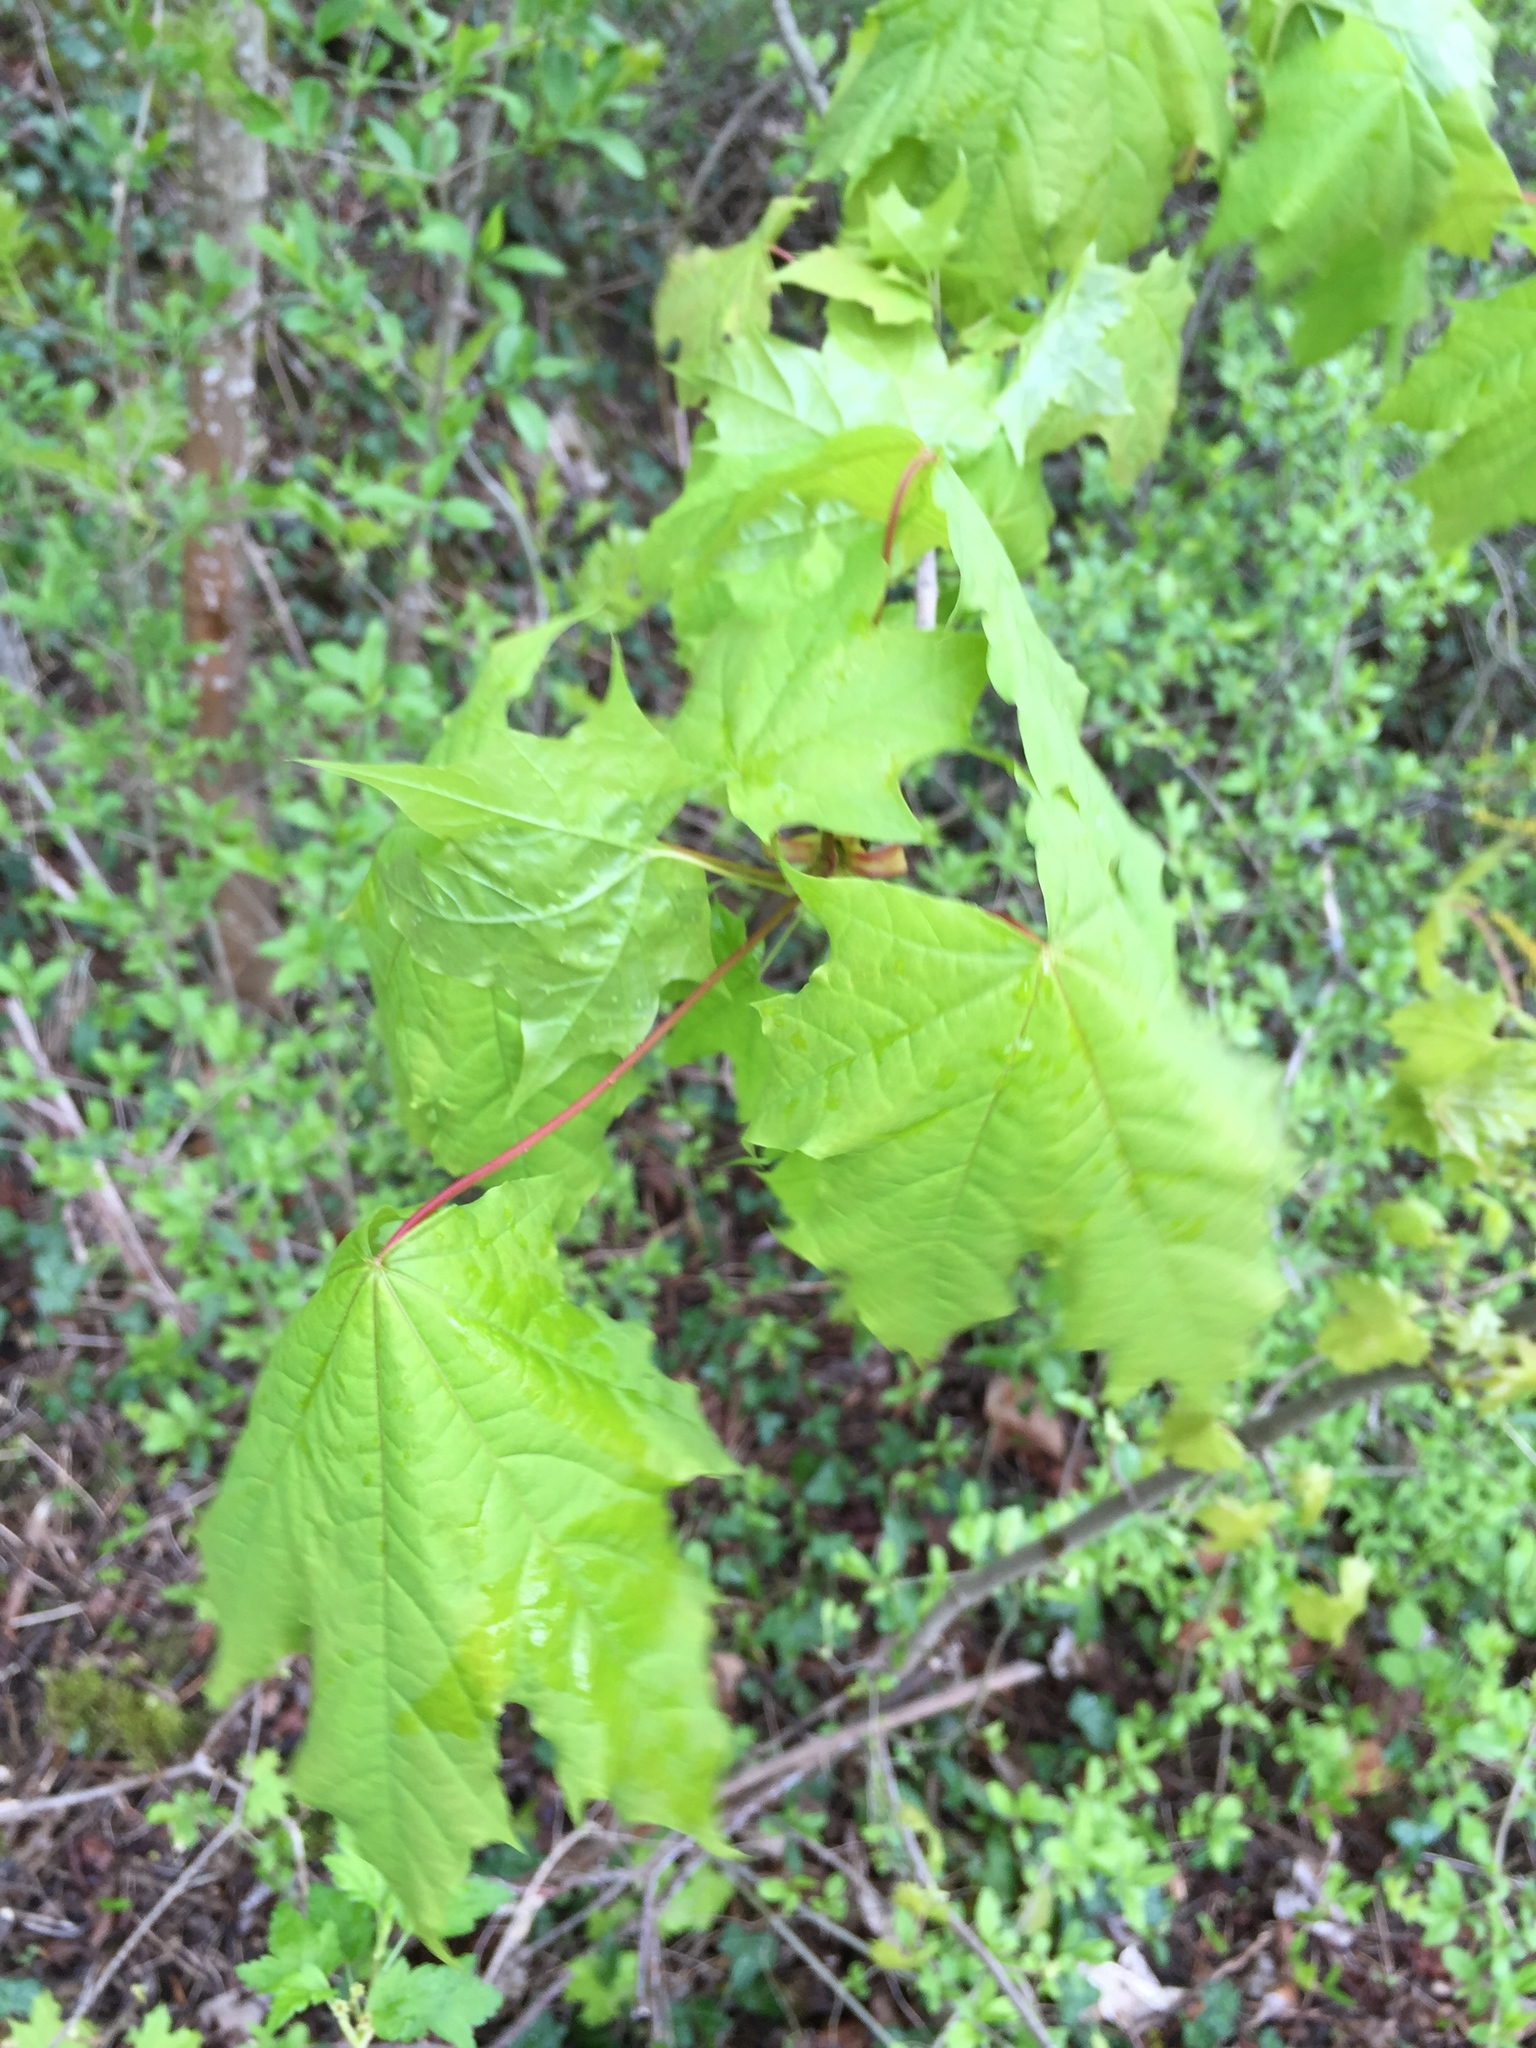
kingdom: Plantae
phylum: Tracheophyta
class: Magnoliopsida
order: Sapindales
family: Sapindaceae
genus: Acer
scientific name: Acer platanoides
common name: Norway maple
